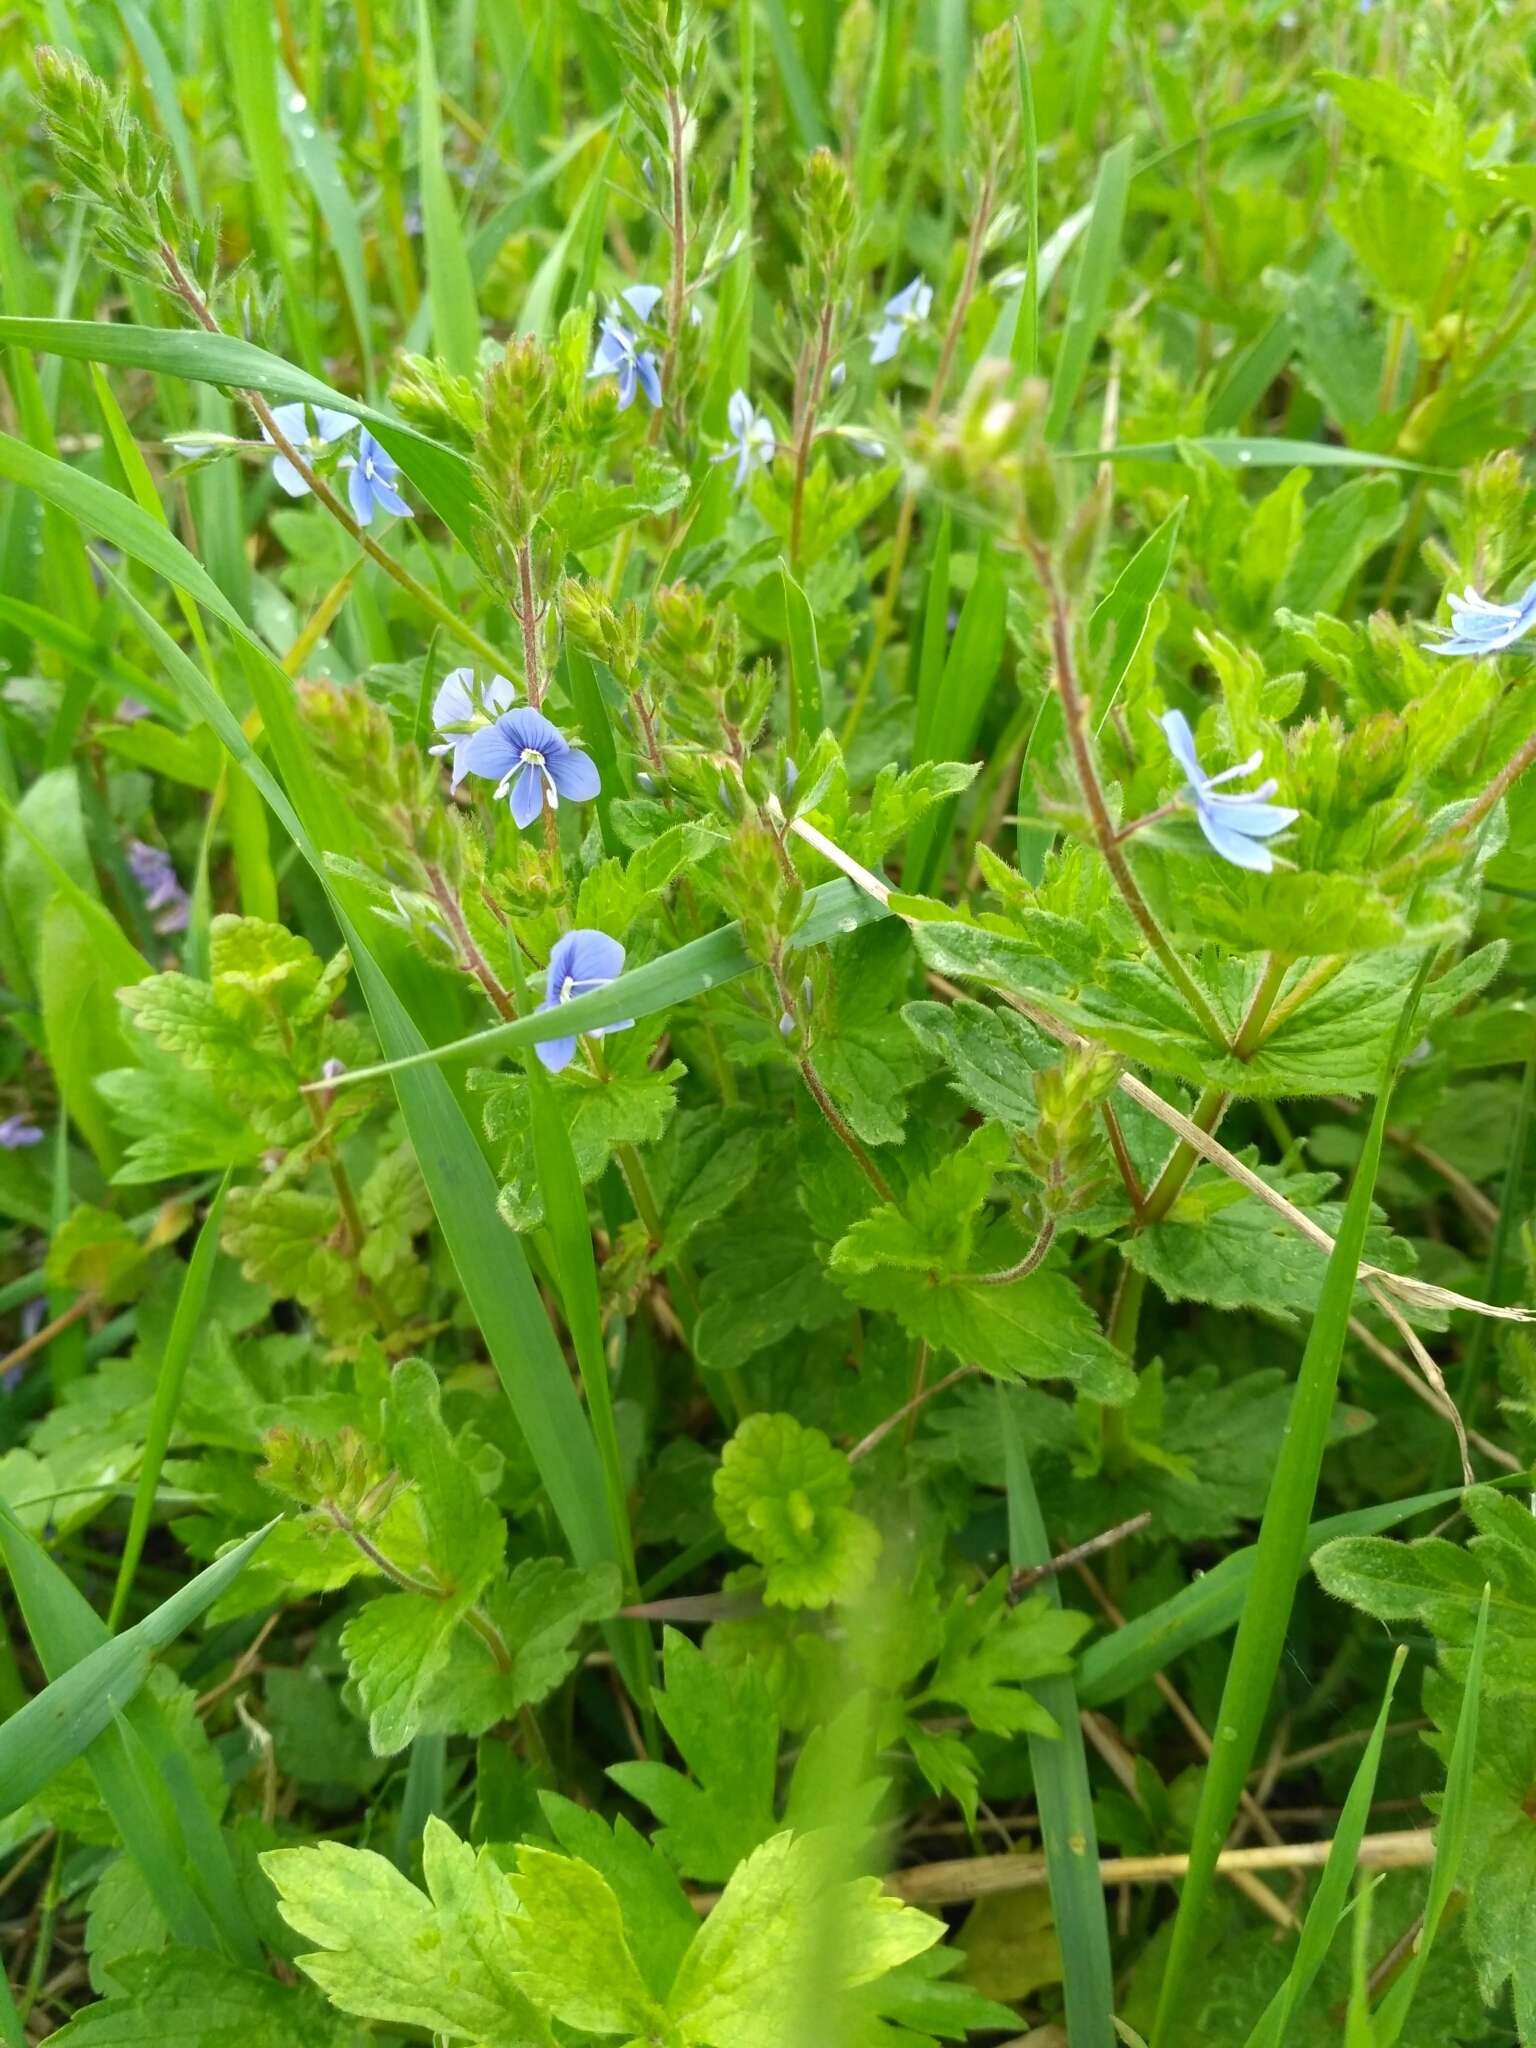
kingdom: Plantae
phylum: Tracheophyta
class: Magnoliopsida
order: Lamiales
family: Plantaginaceae
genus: Veronica
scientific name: Veronica chamaedrys
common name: Germander speedwell
